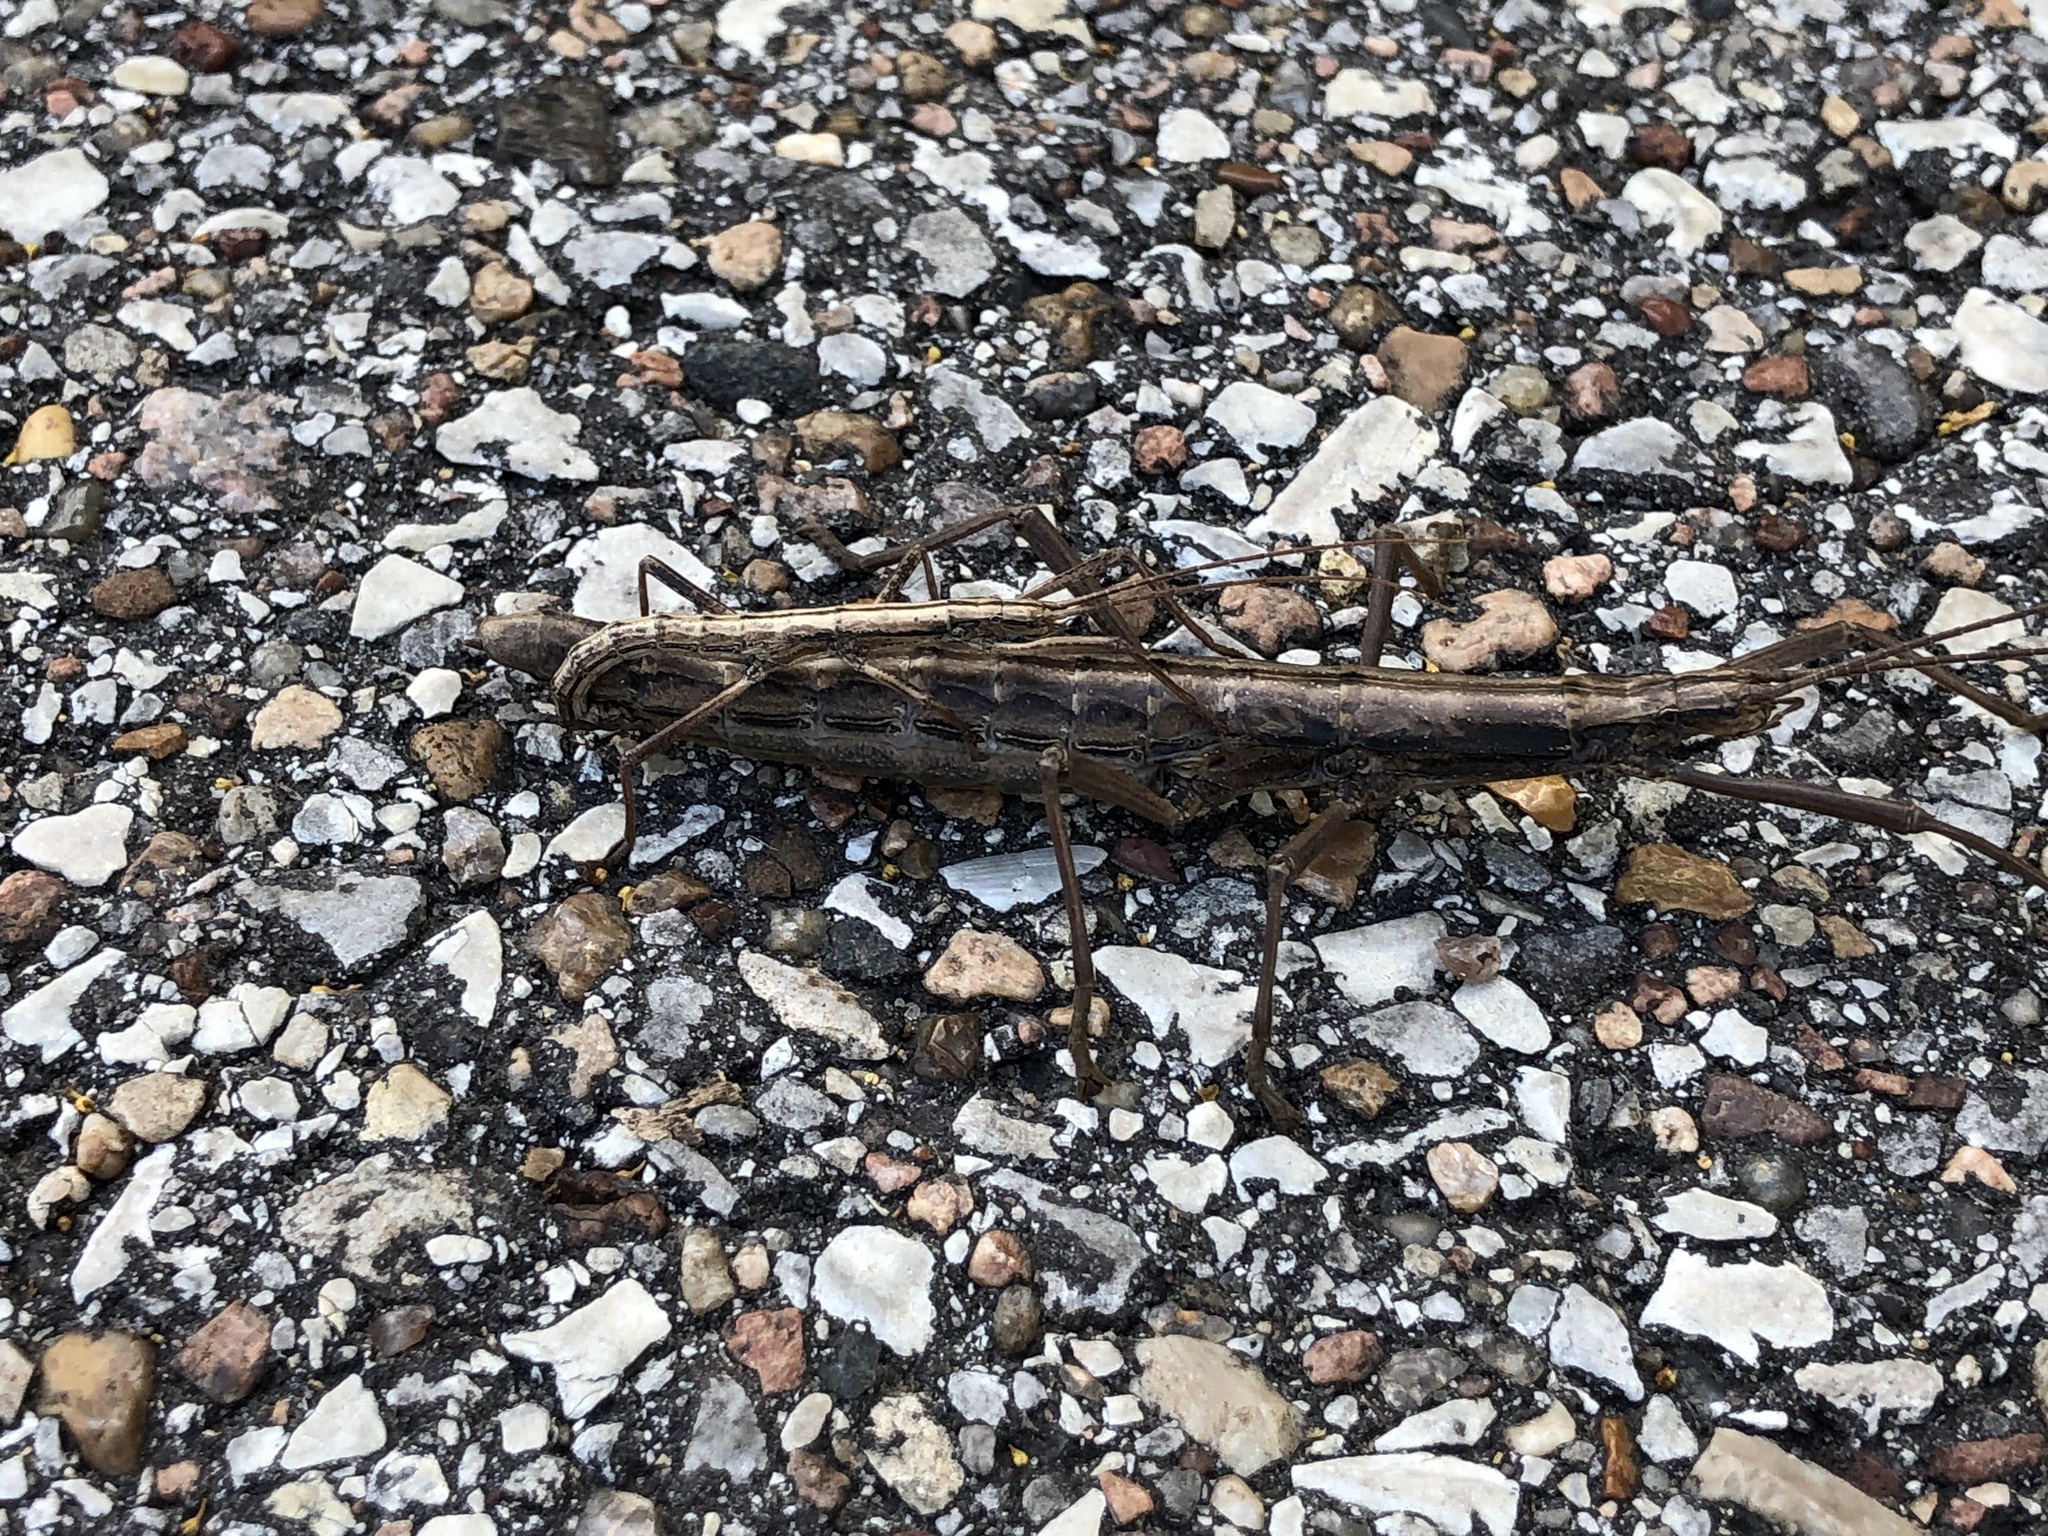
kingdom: Animalia
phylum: Arthropoda
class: Insecta
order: Phasmida
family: Pseudophasmatidae
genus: Anisomorpha
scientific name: Anisomorpha buprestoides
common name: Florida stick insect
